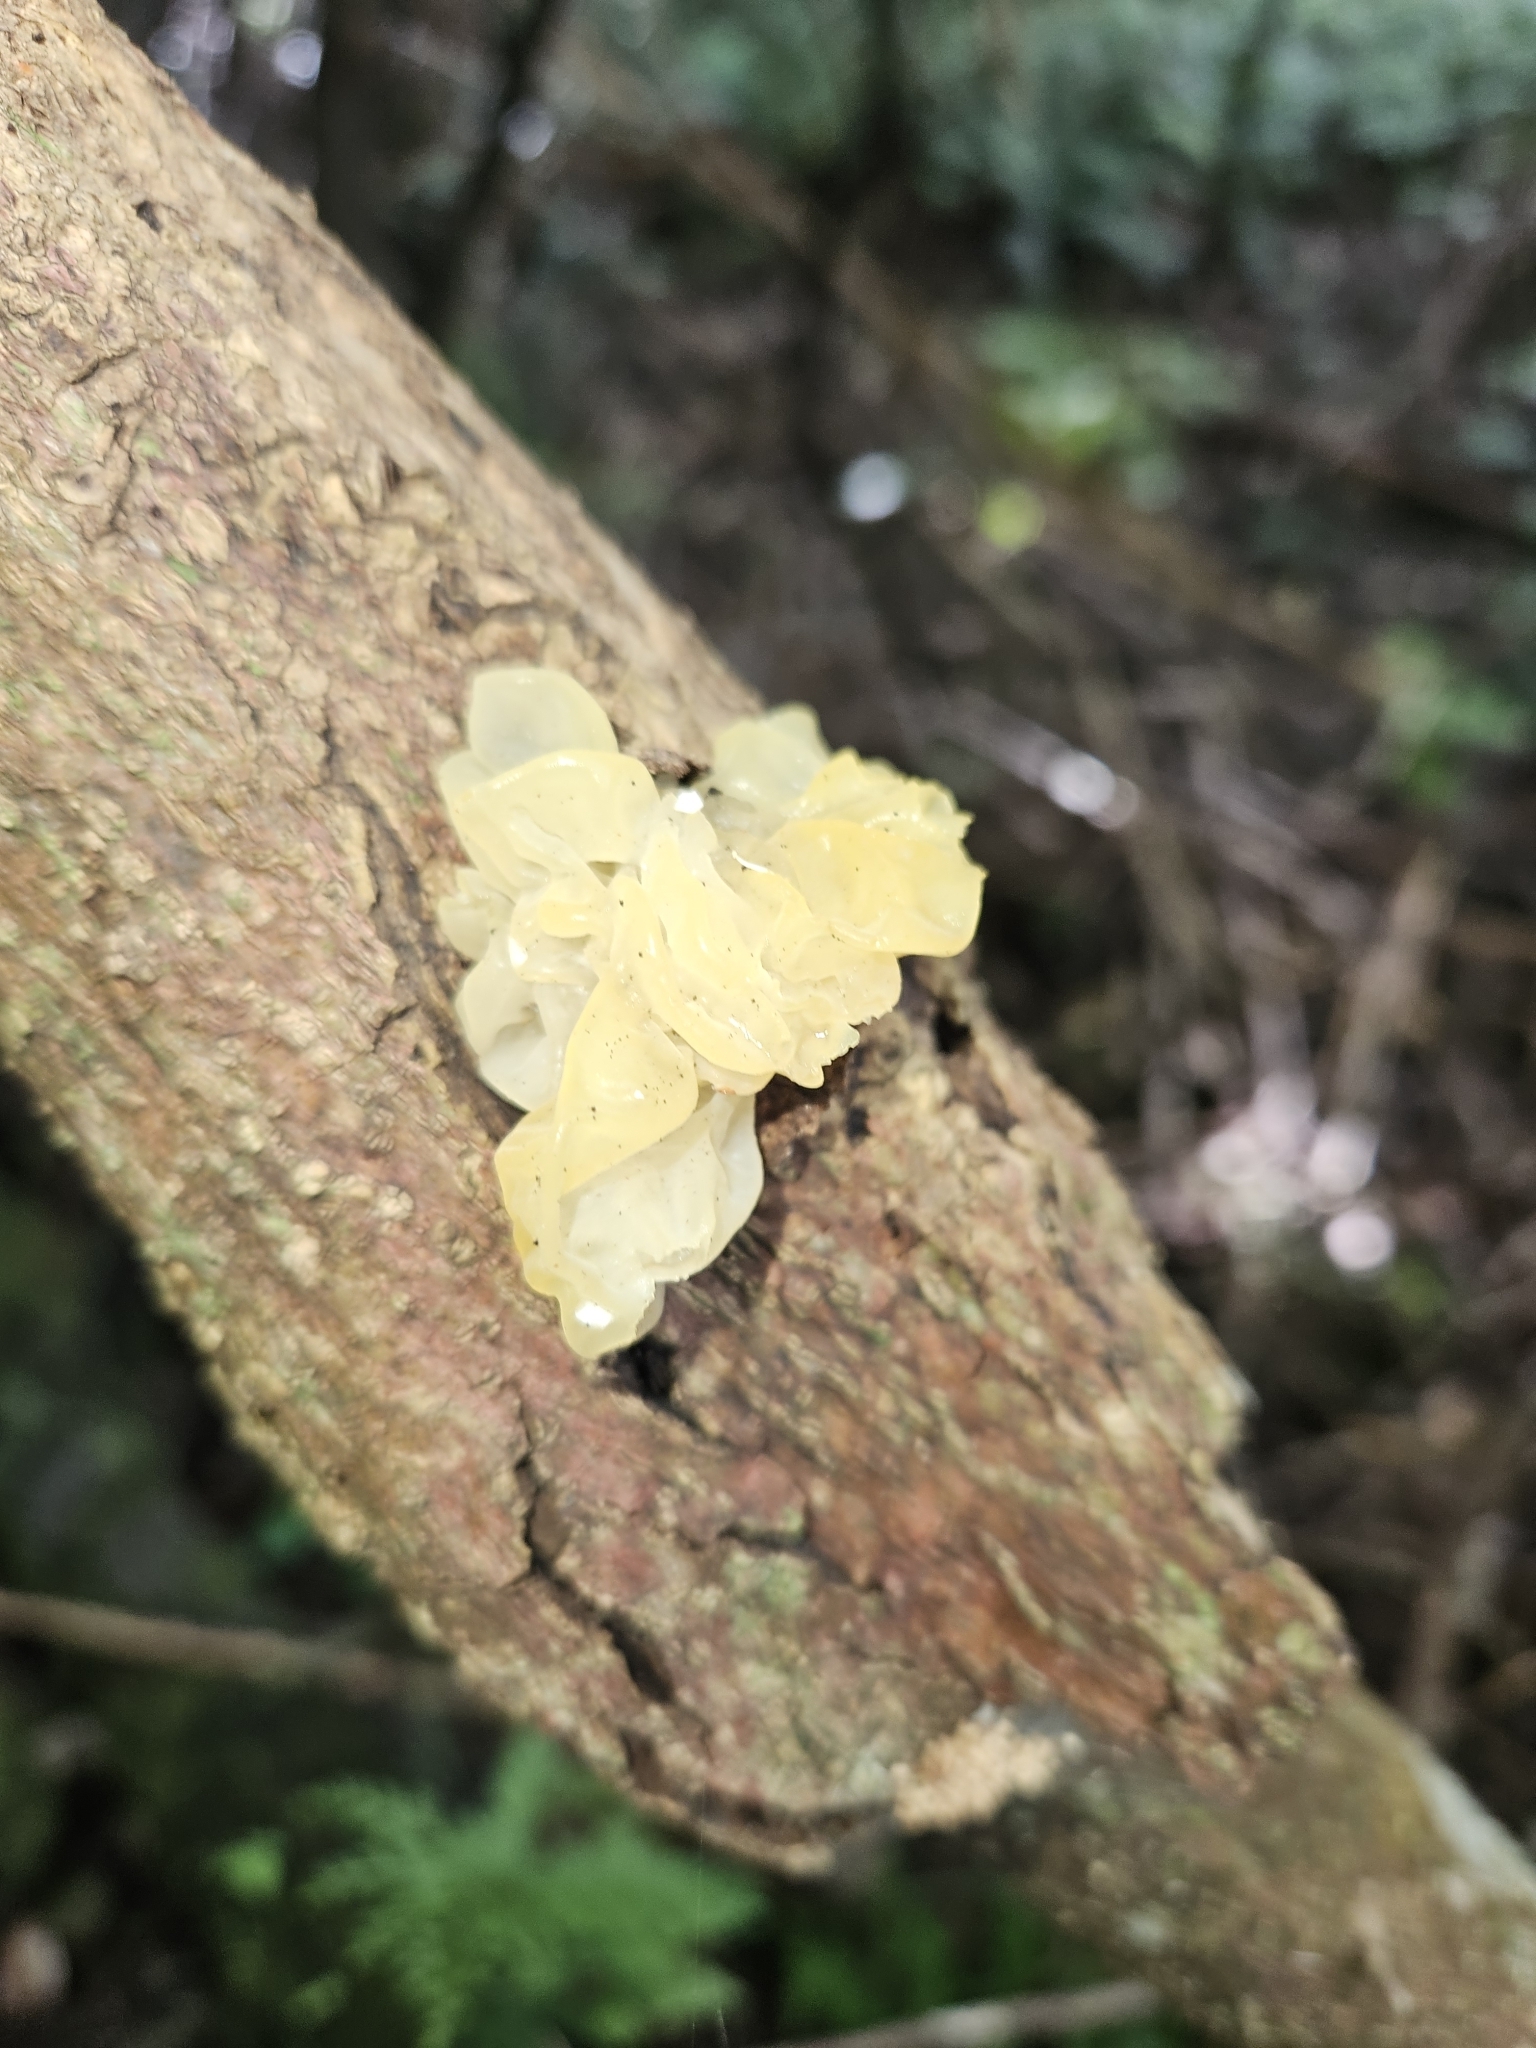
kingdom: Fungi
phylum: Basidiomycota
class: Tremellomycetes
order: Tremellales
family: Tremellaceae
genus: Tremella
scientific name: Tremella mesenterica
